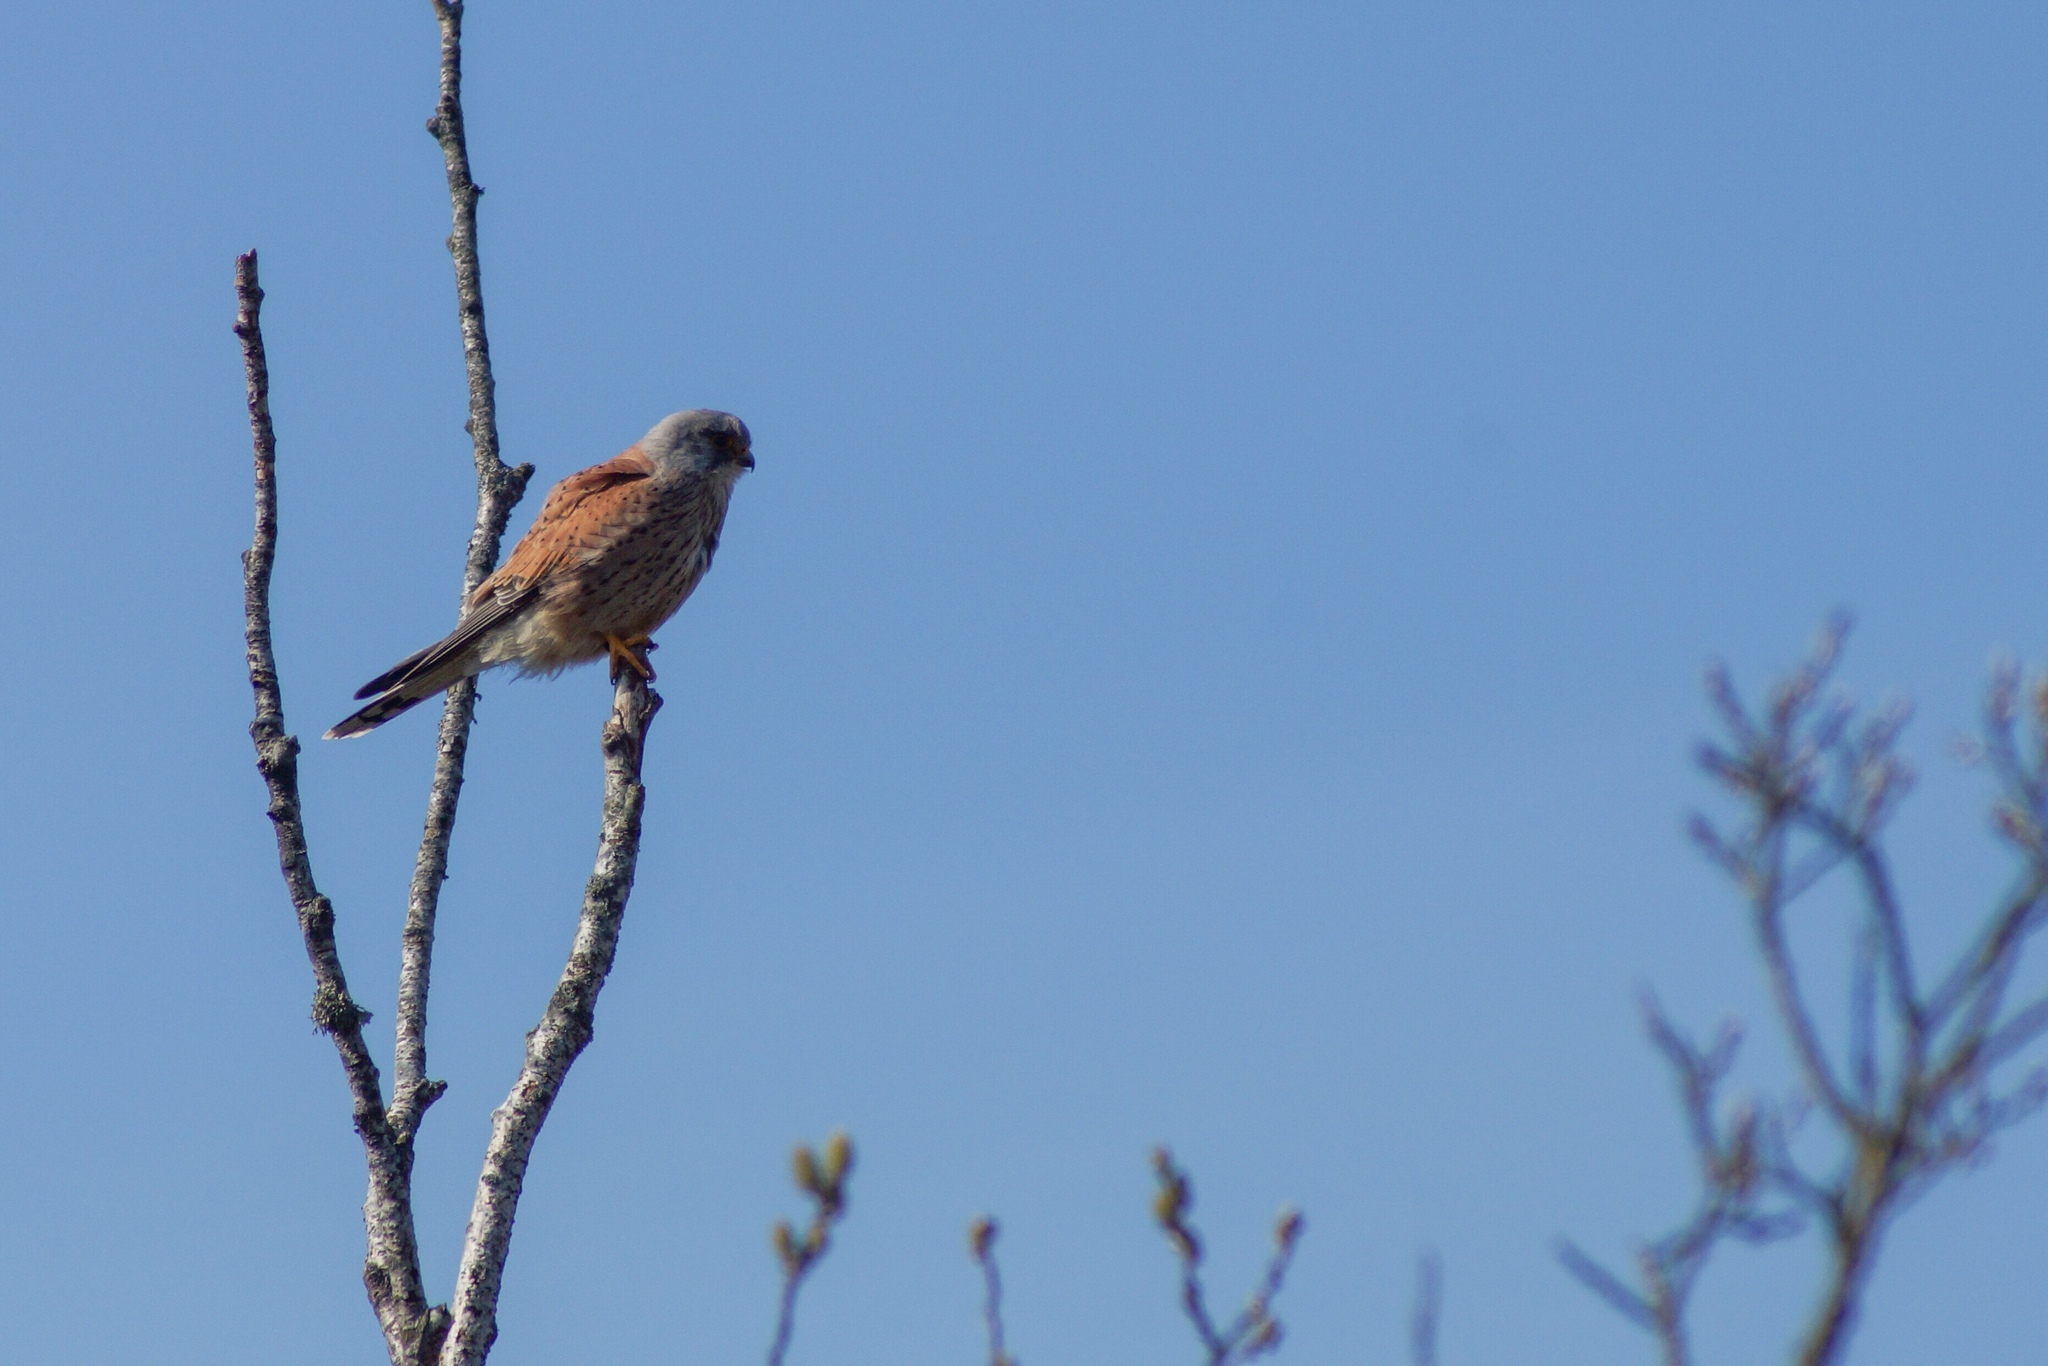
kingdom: Animalia
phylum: Chordata
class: Aves
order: Falconiformes
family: Falconidae
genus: Falco
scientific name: Falco tinnunculus
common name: Common kestrel
